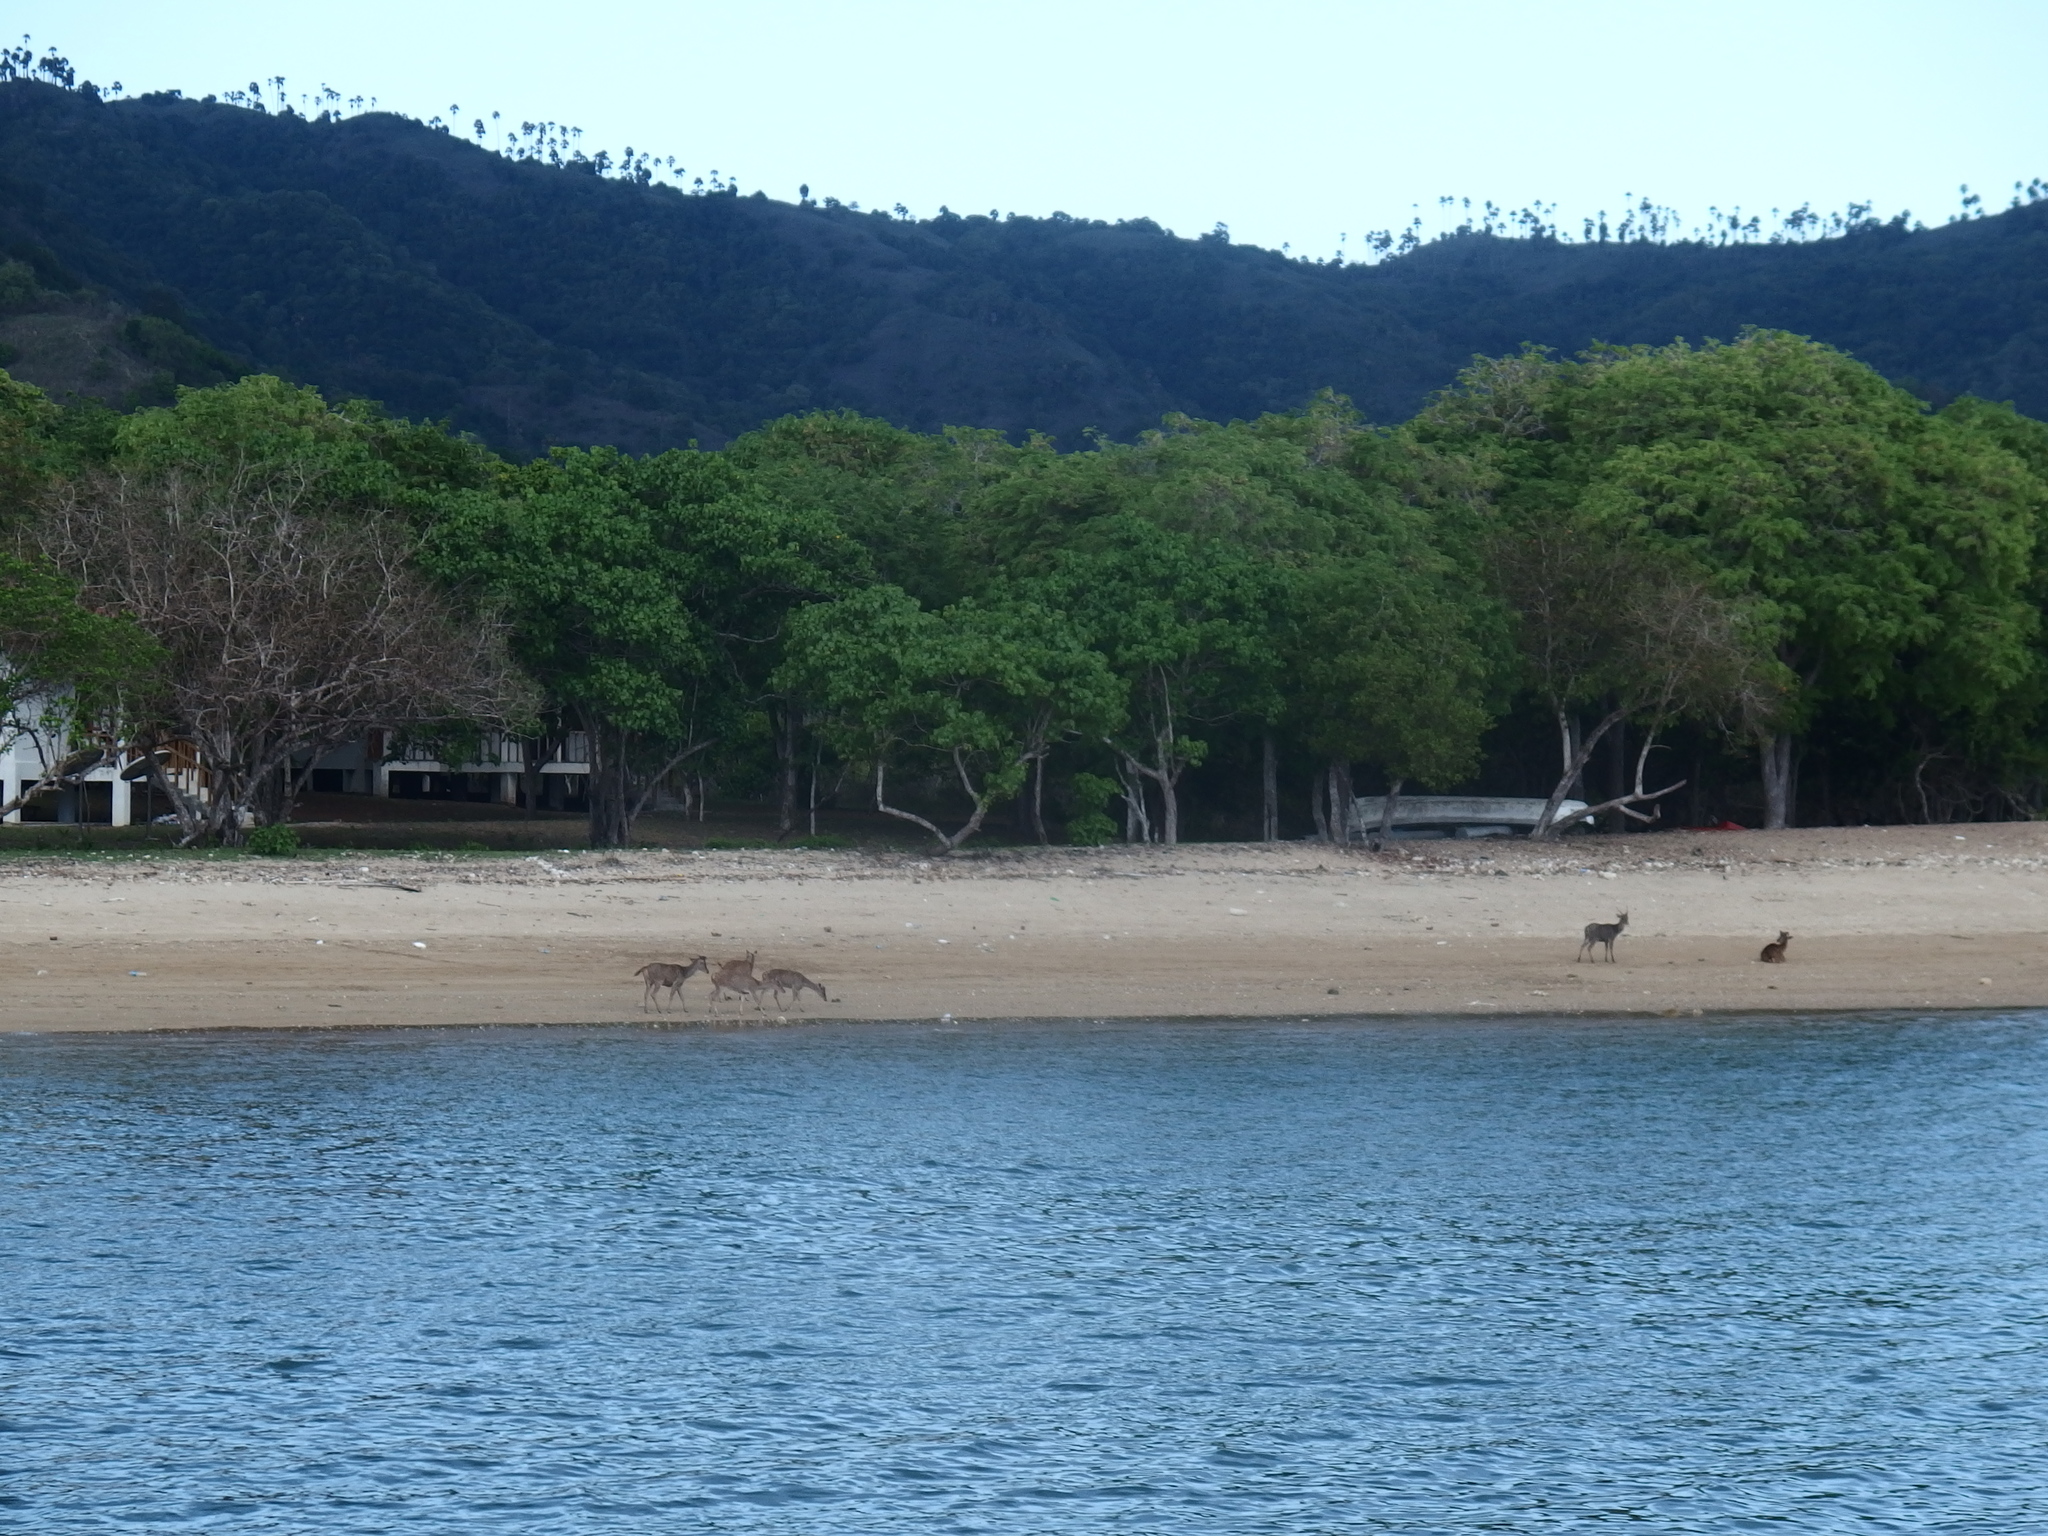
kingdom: Animalia
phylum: Chordata
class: Mammalia
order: Artiodactyla
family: Cervidae
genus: Rusa
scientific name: Rusa timorensis
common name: Javan rusa
